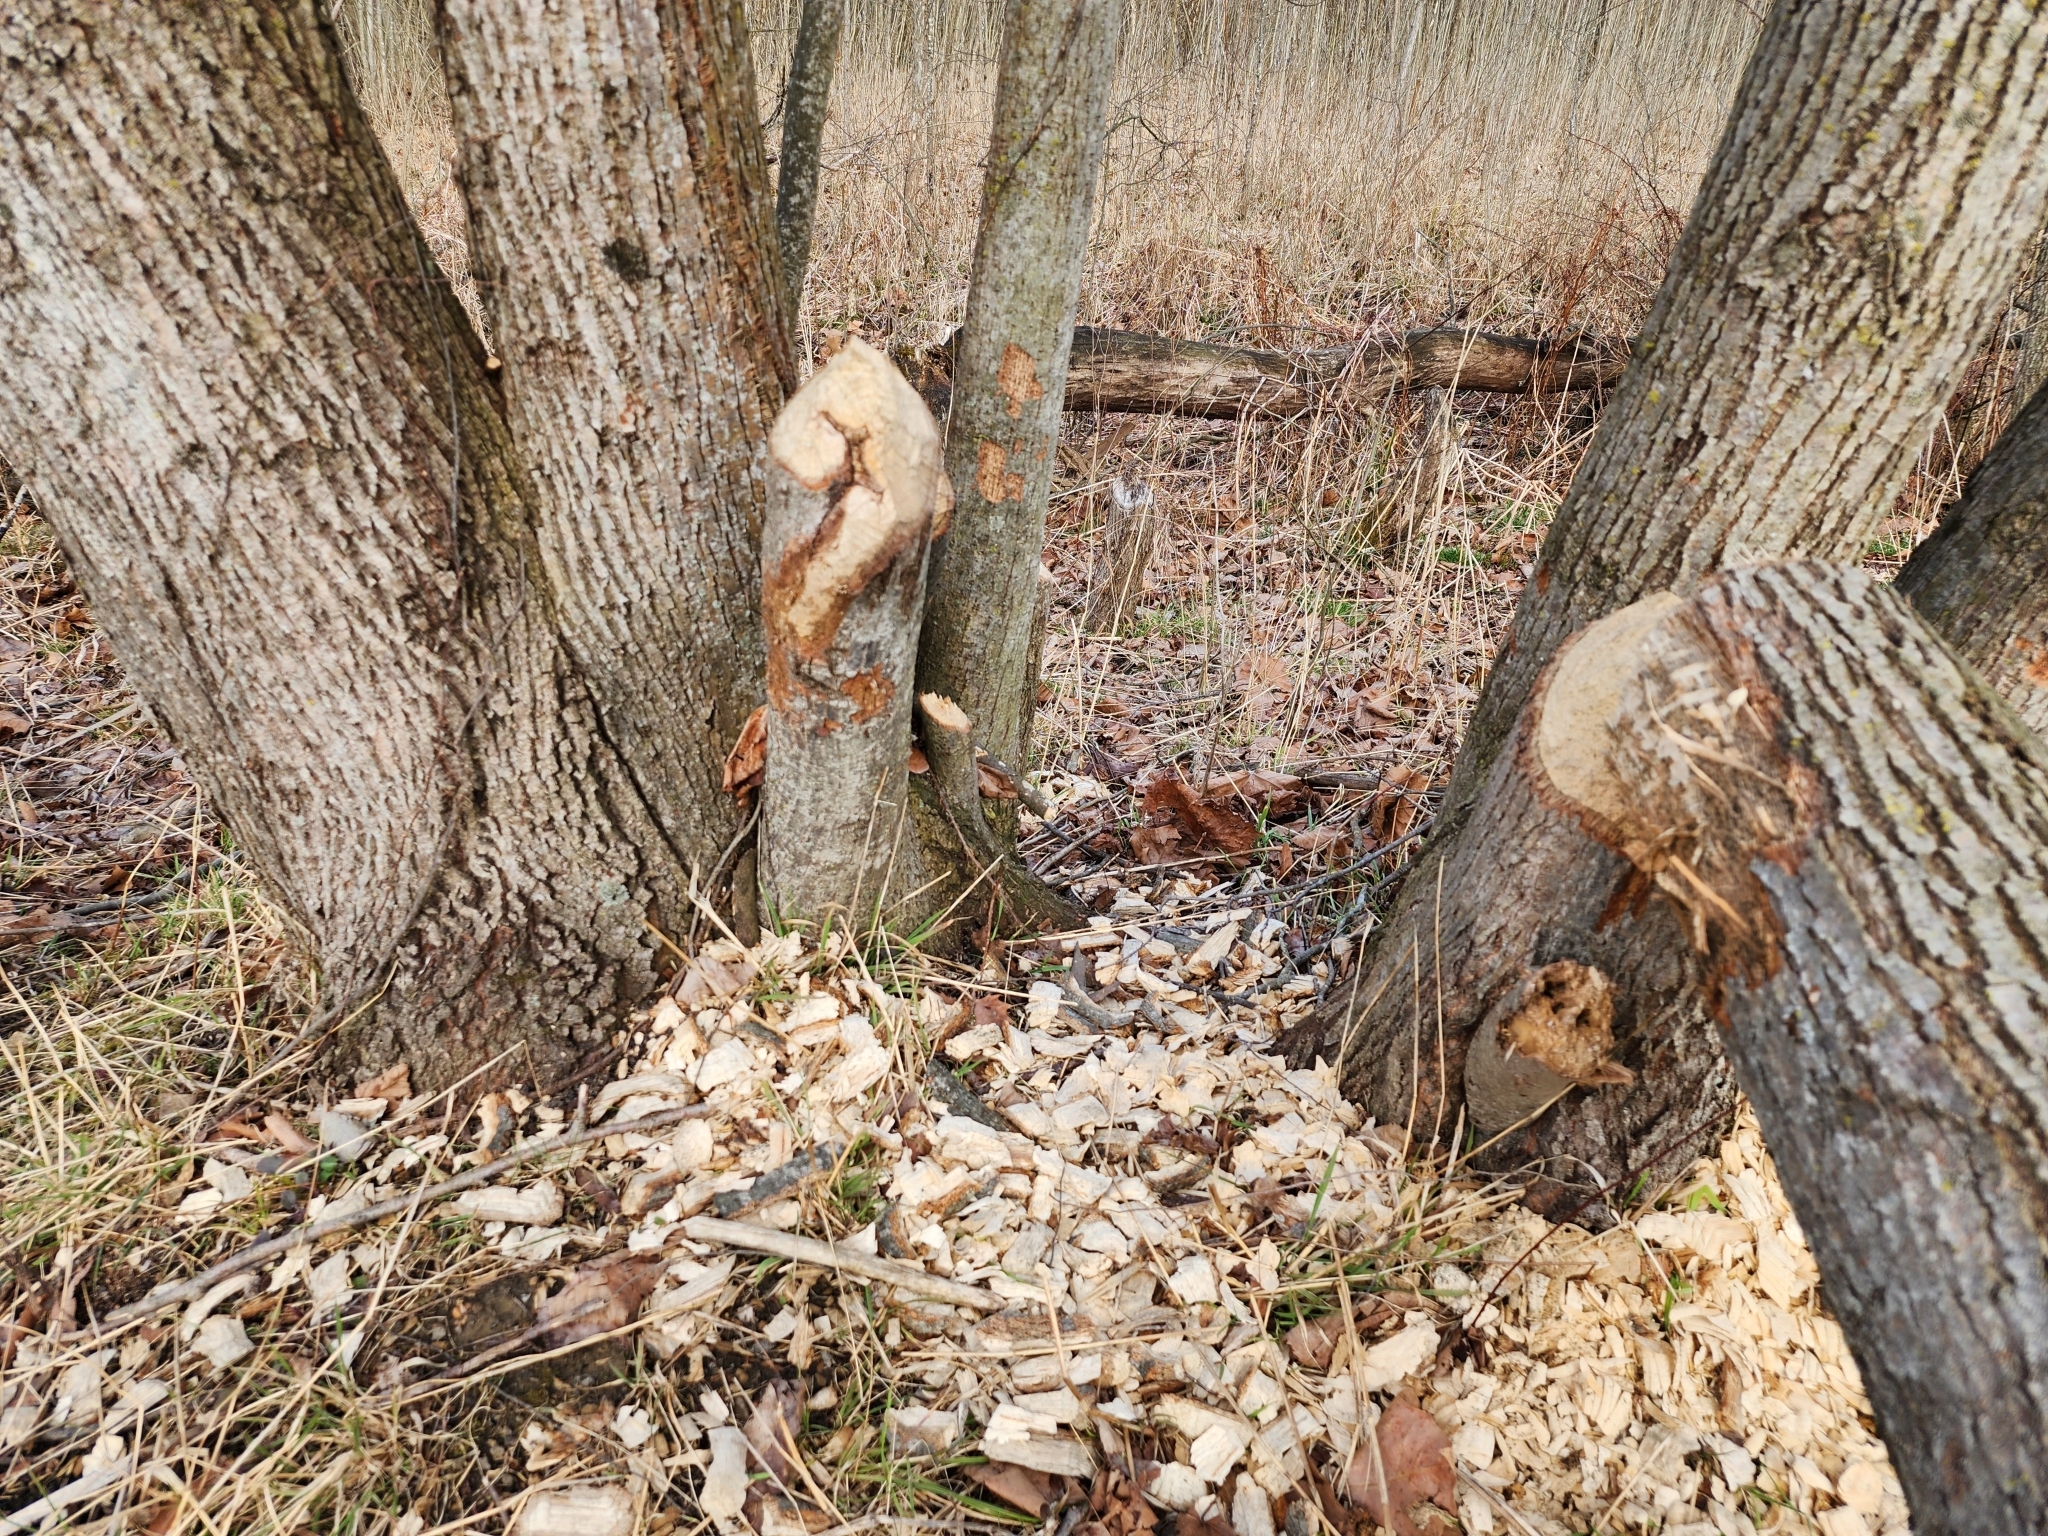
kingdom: Animalia
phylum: Chordata
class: Mammalia
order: Rodentia
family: Castoridae
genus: Castor
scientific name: Castor canadensis
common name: American beaver
